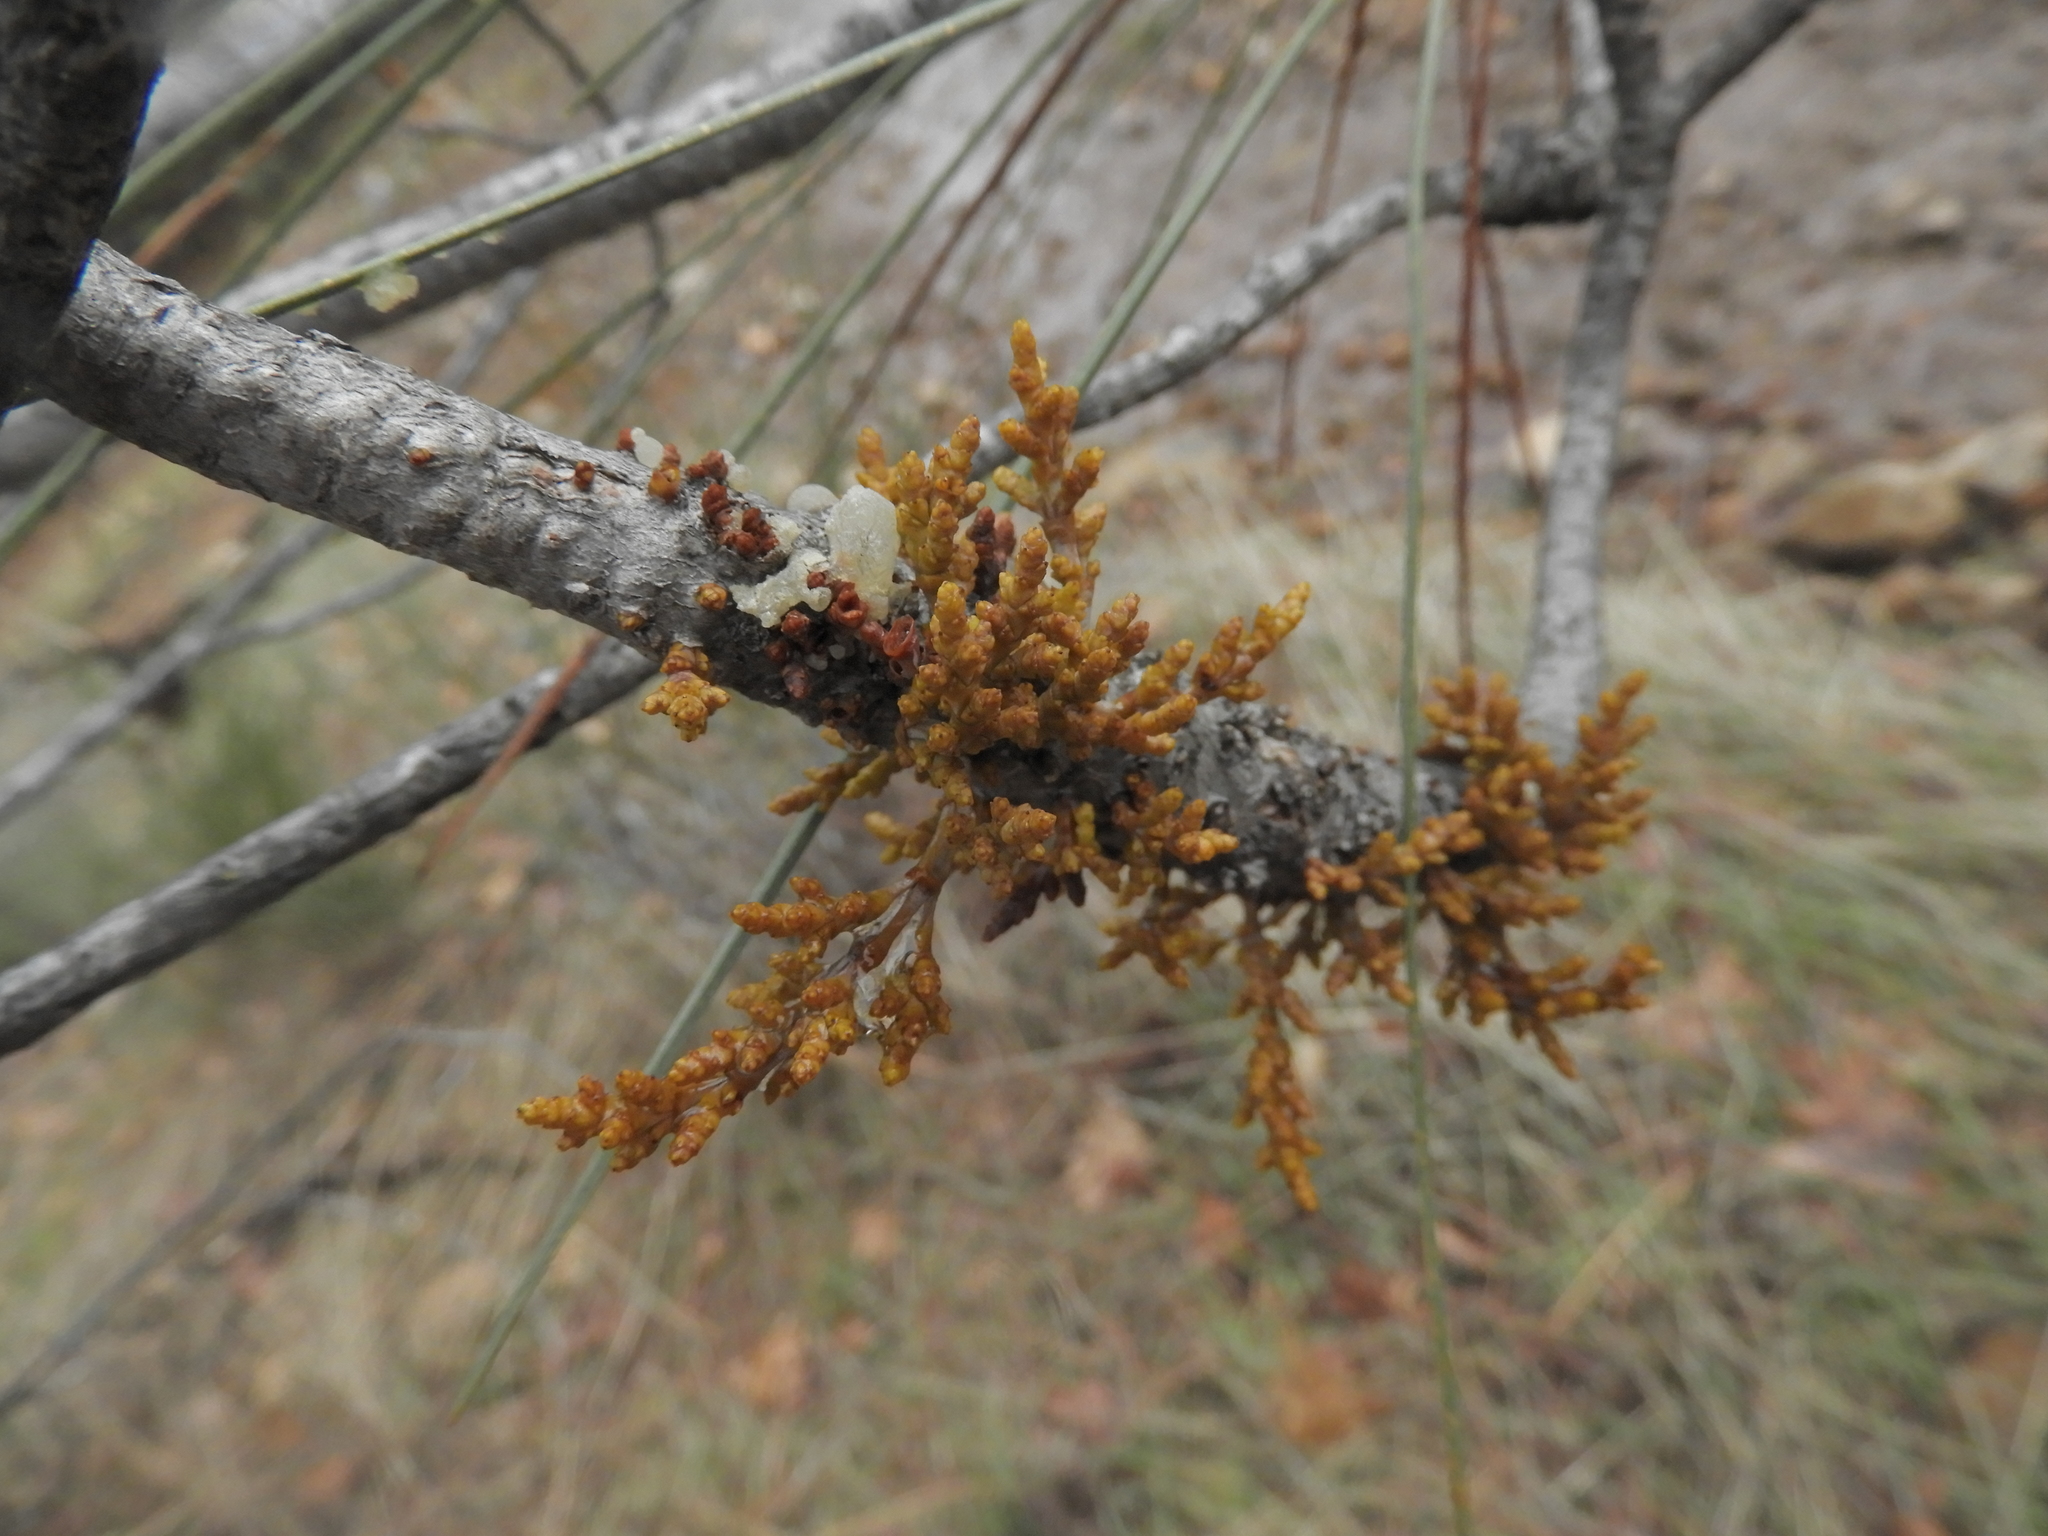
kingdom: Plantae
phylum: Tracheophyta
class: Magnoliopsida
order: Santalales
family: Viscaceae
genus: Arceuthobium
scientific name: Arceuthobium campylopodum
